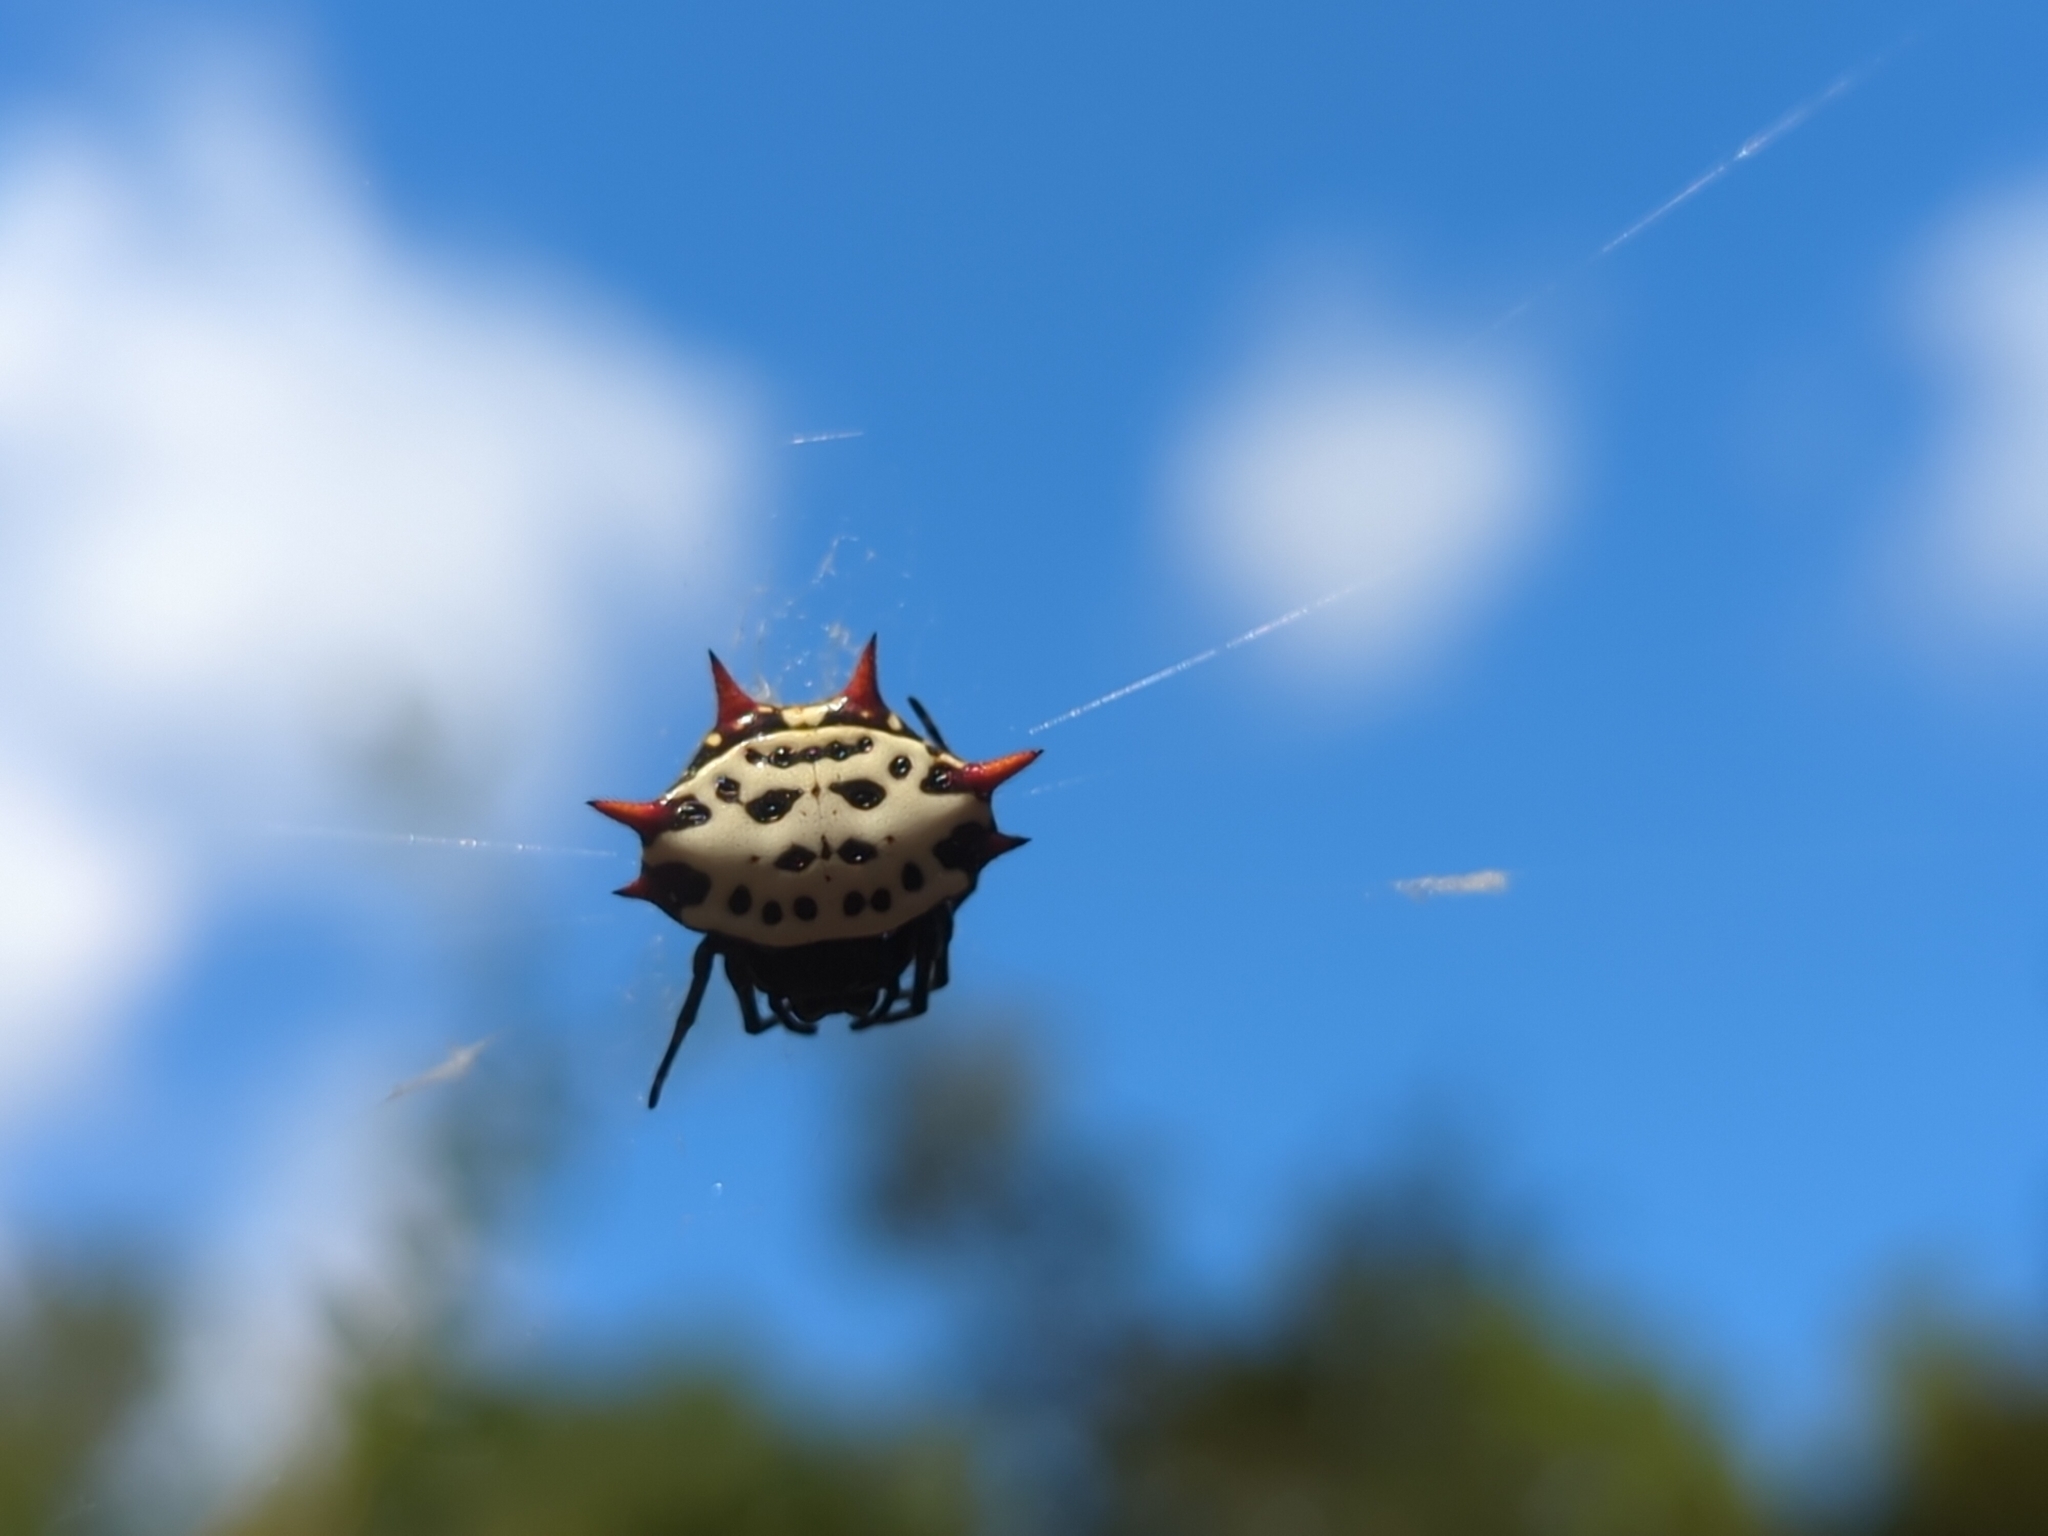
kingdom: Animalia
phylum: Arthropoda
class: Arachnida
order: Araneae
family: Araneidae
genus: Gasteracantha
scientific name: Gasteracantha cancriformis
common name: Orb weavers
